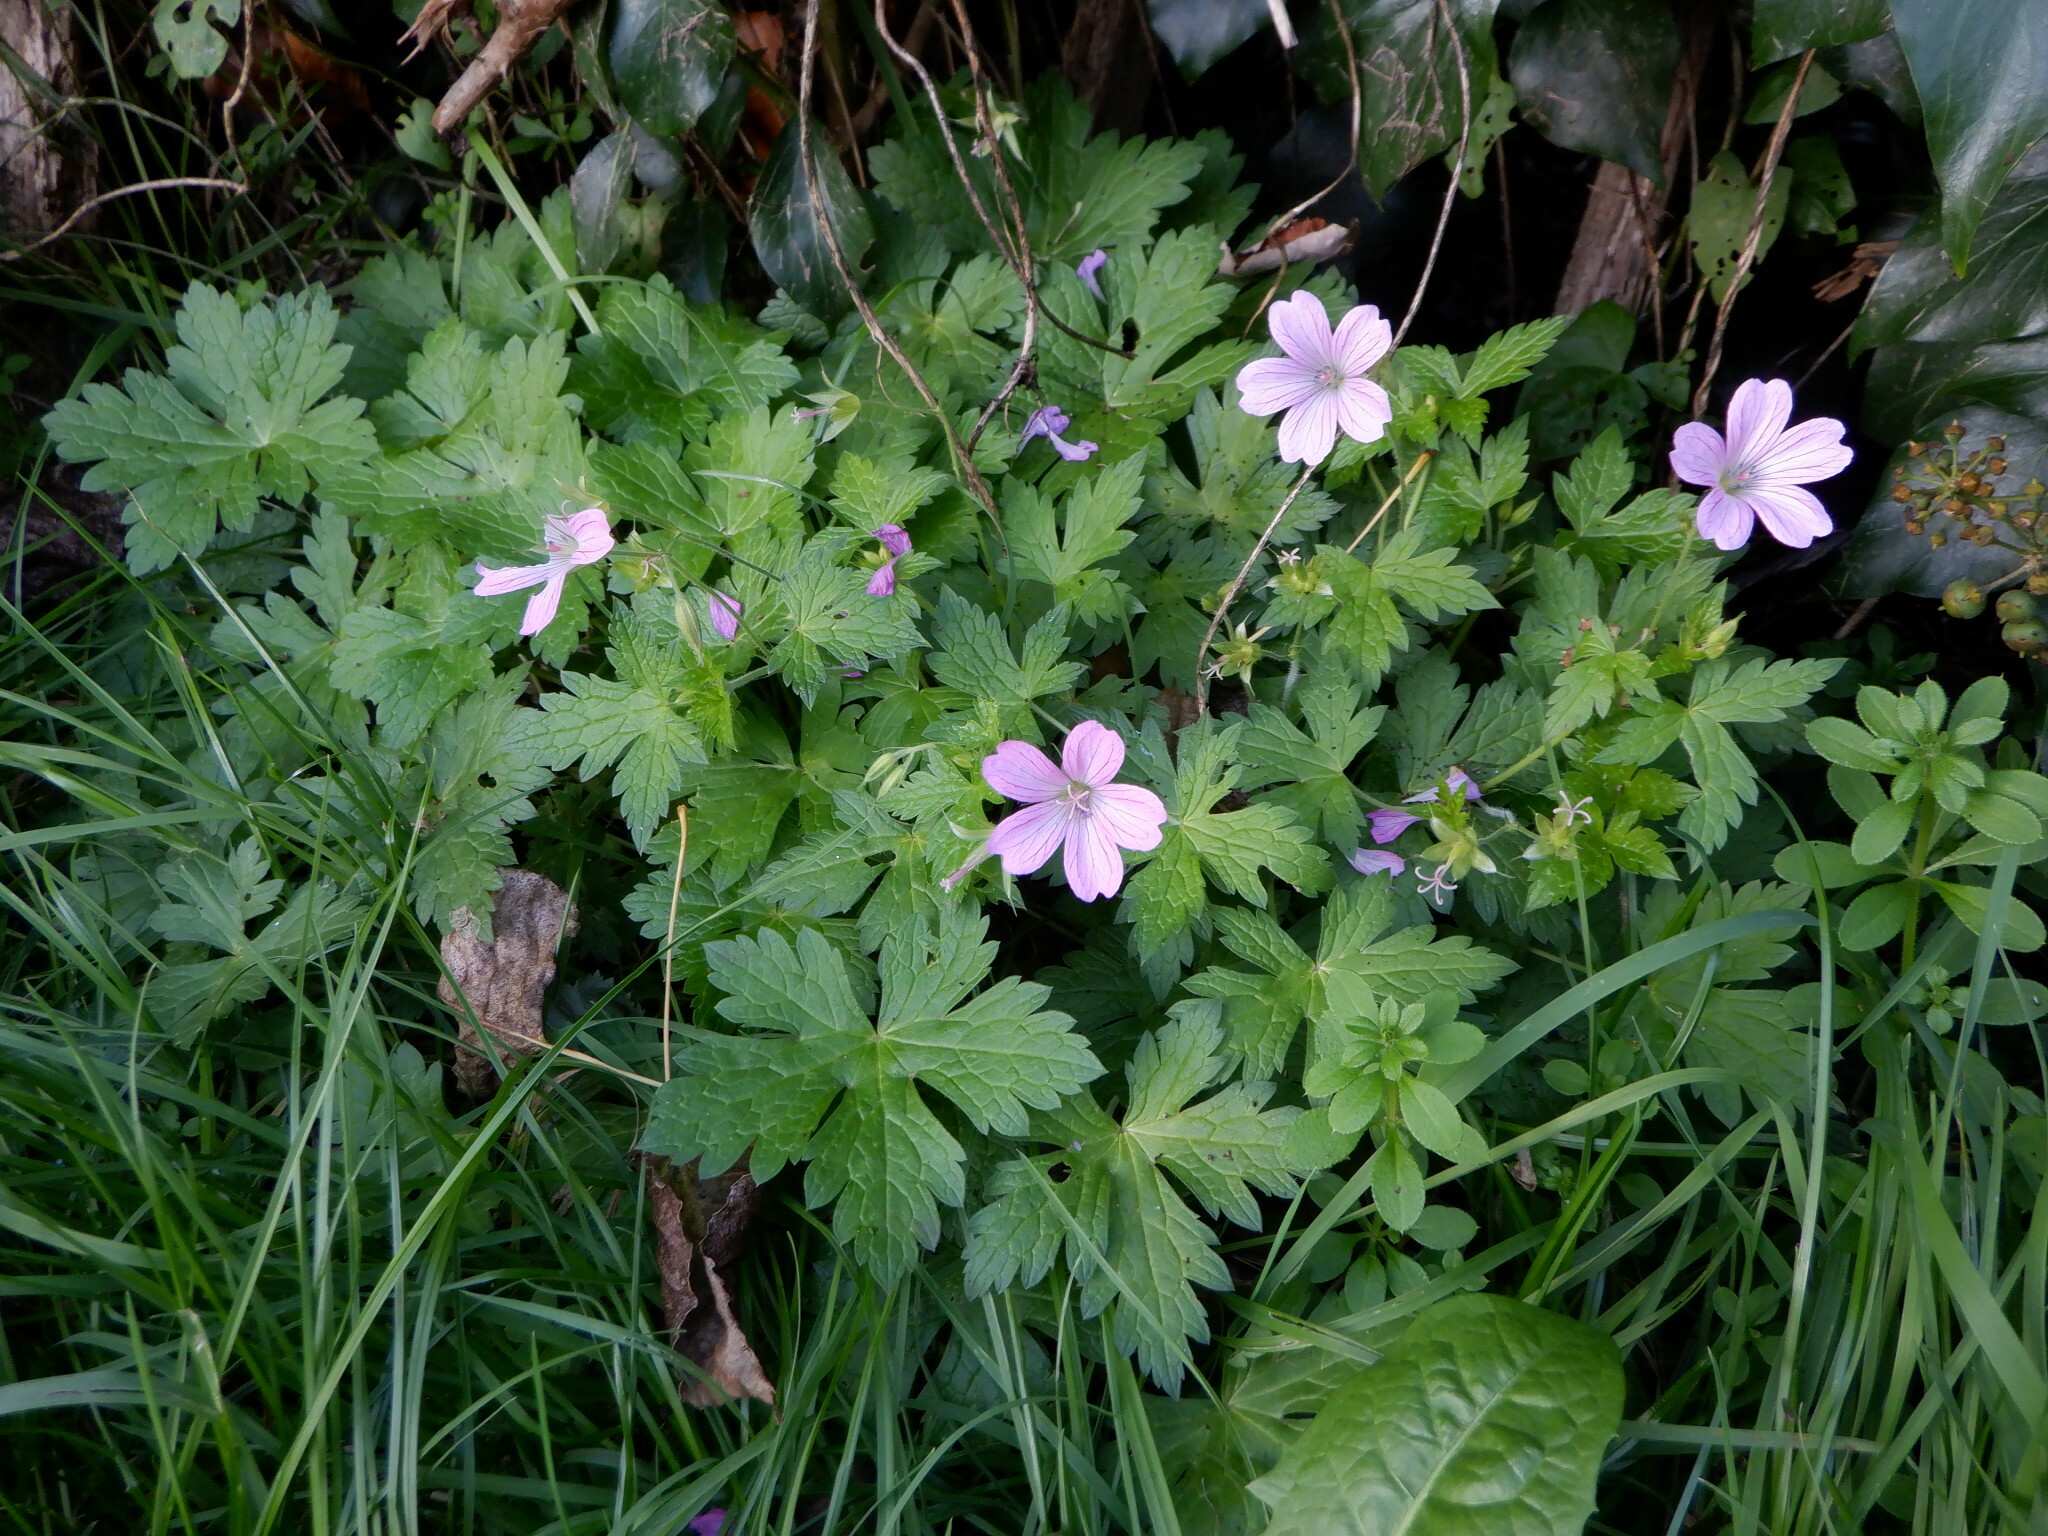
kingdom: Plantae
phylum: Tracheophyta
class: Magnoliopsida
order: Geraniales
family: Geraniaceae
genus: Geranium
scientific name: Geranium oxonianum
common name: Druce's crane's-bill
